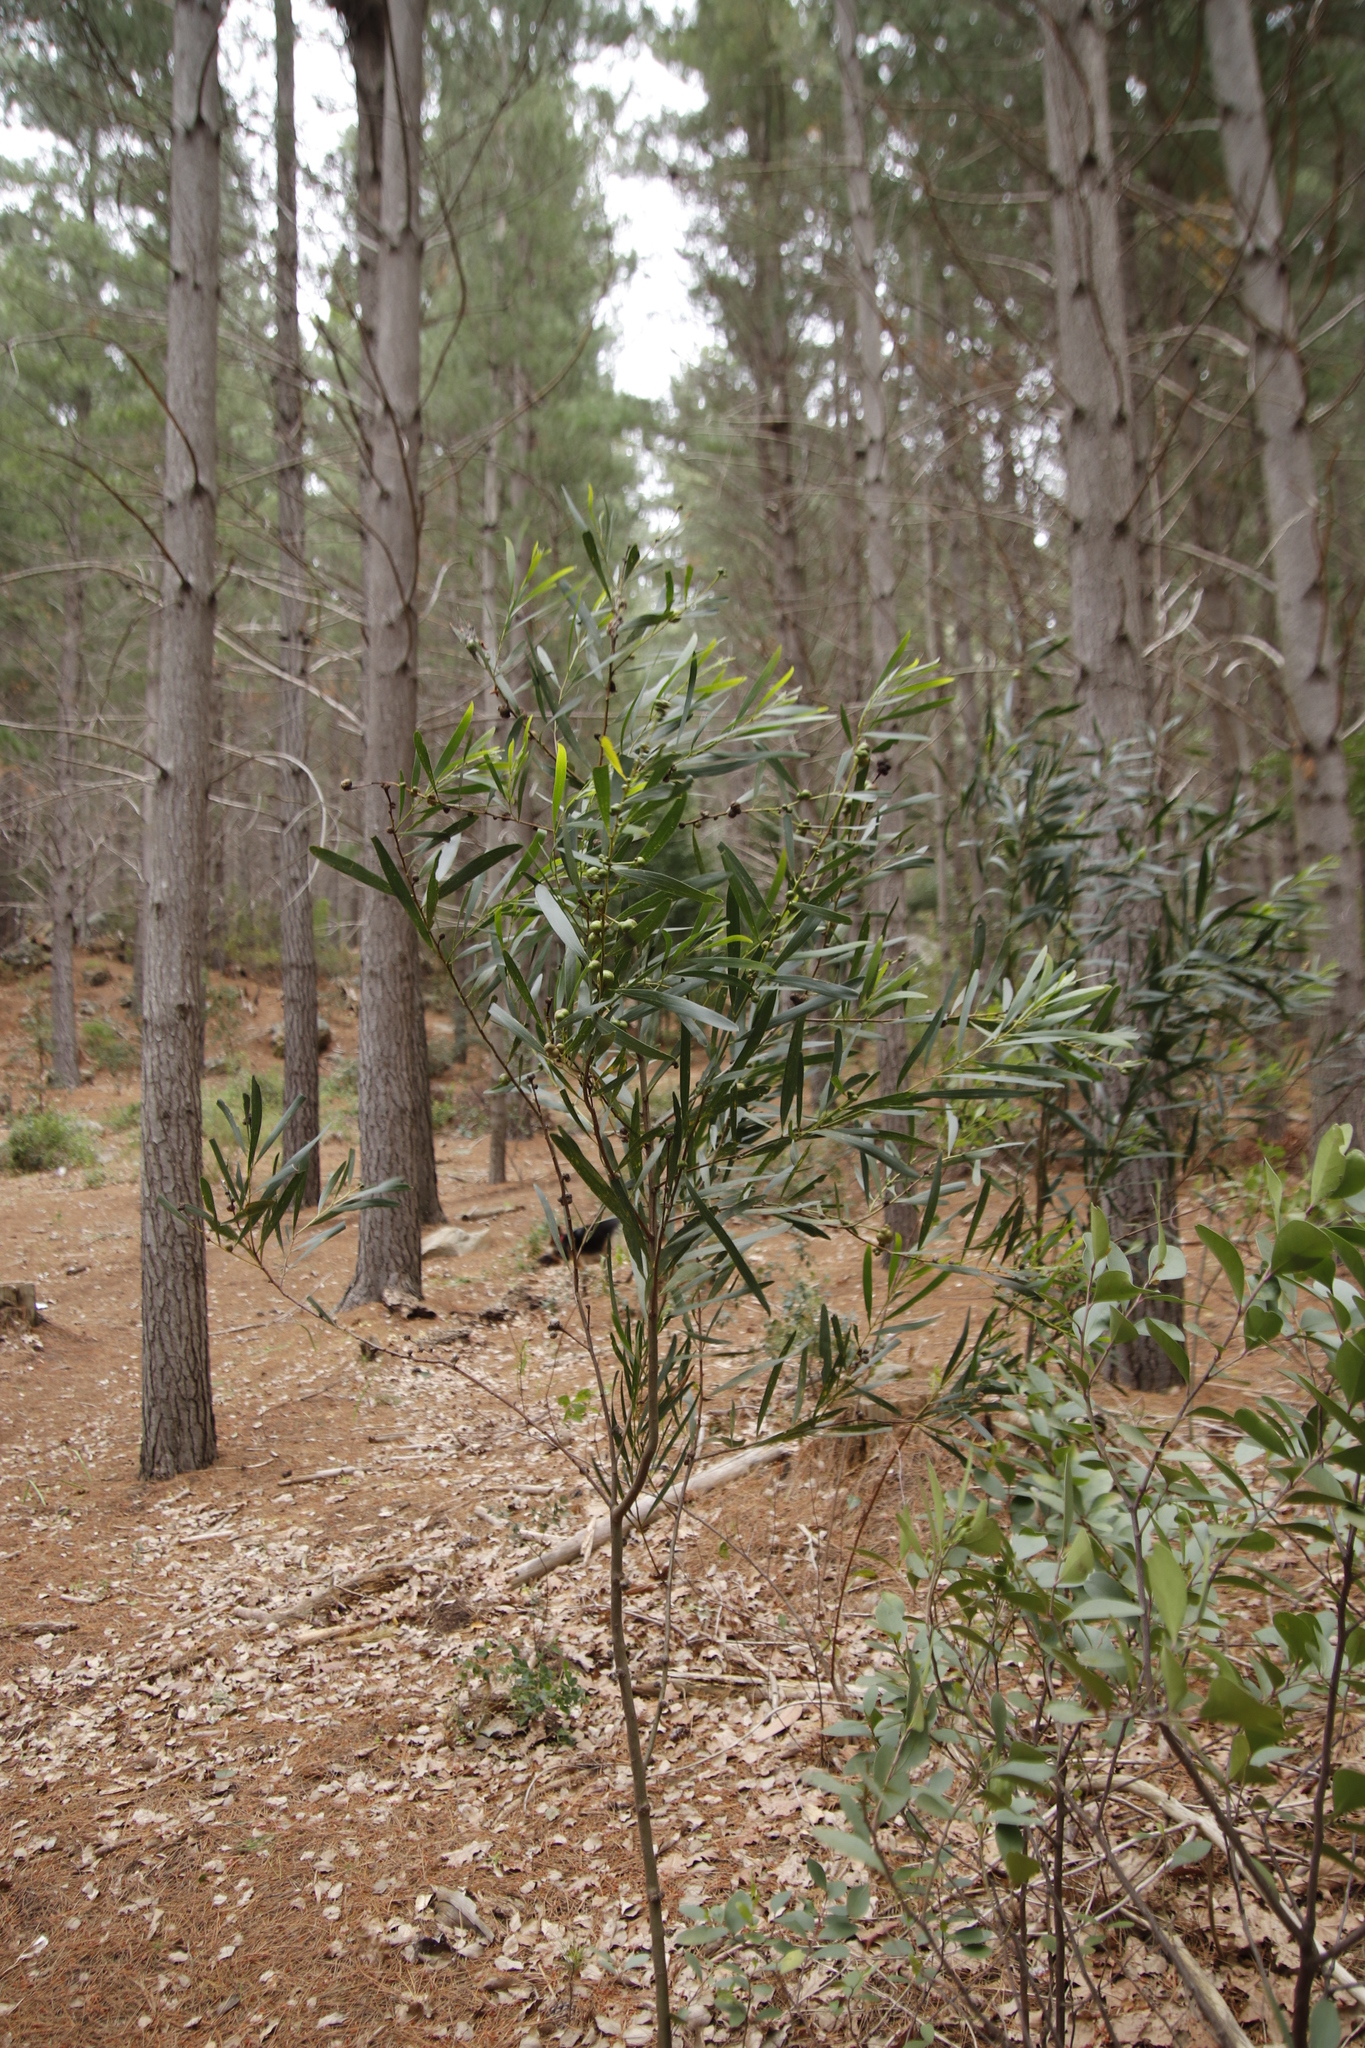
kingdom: Plantae
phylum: Tracheophyta
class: Magnoliopsida
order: Fabales
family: Fabaceae
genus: Acacia
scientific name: Acacia longifolia
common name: Sydney golden wattle
